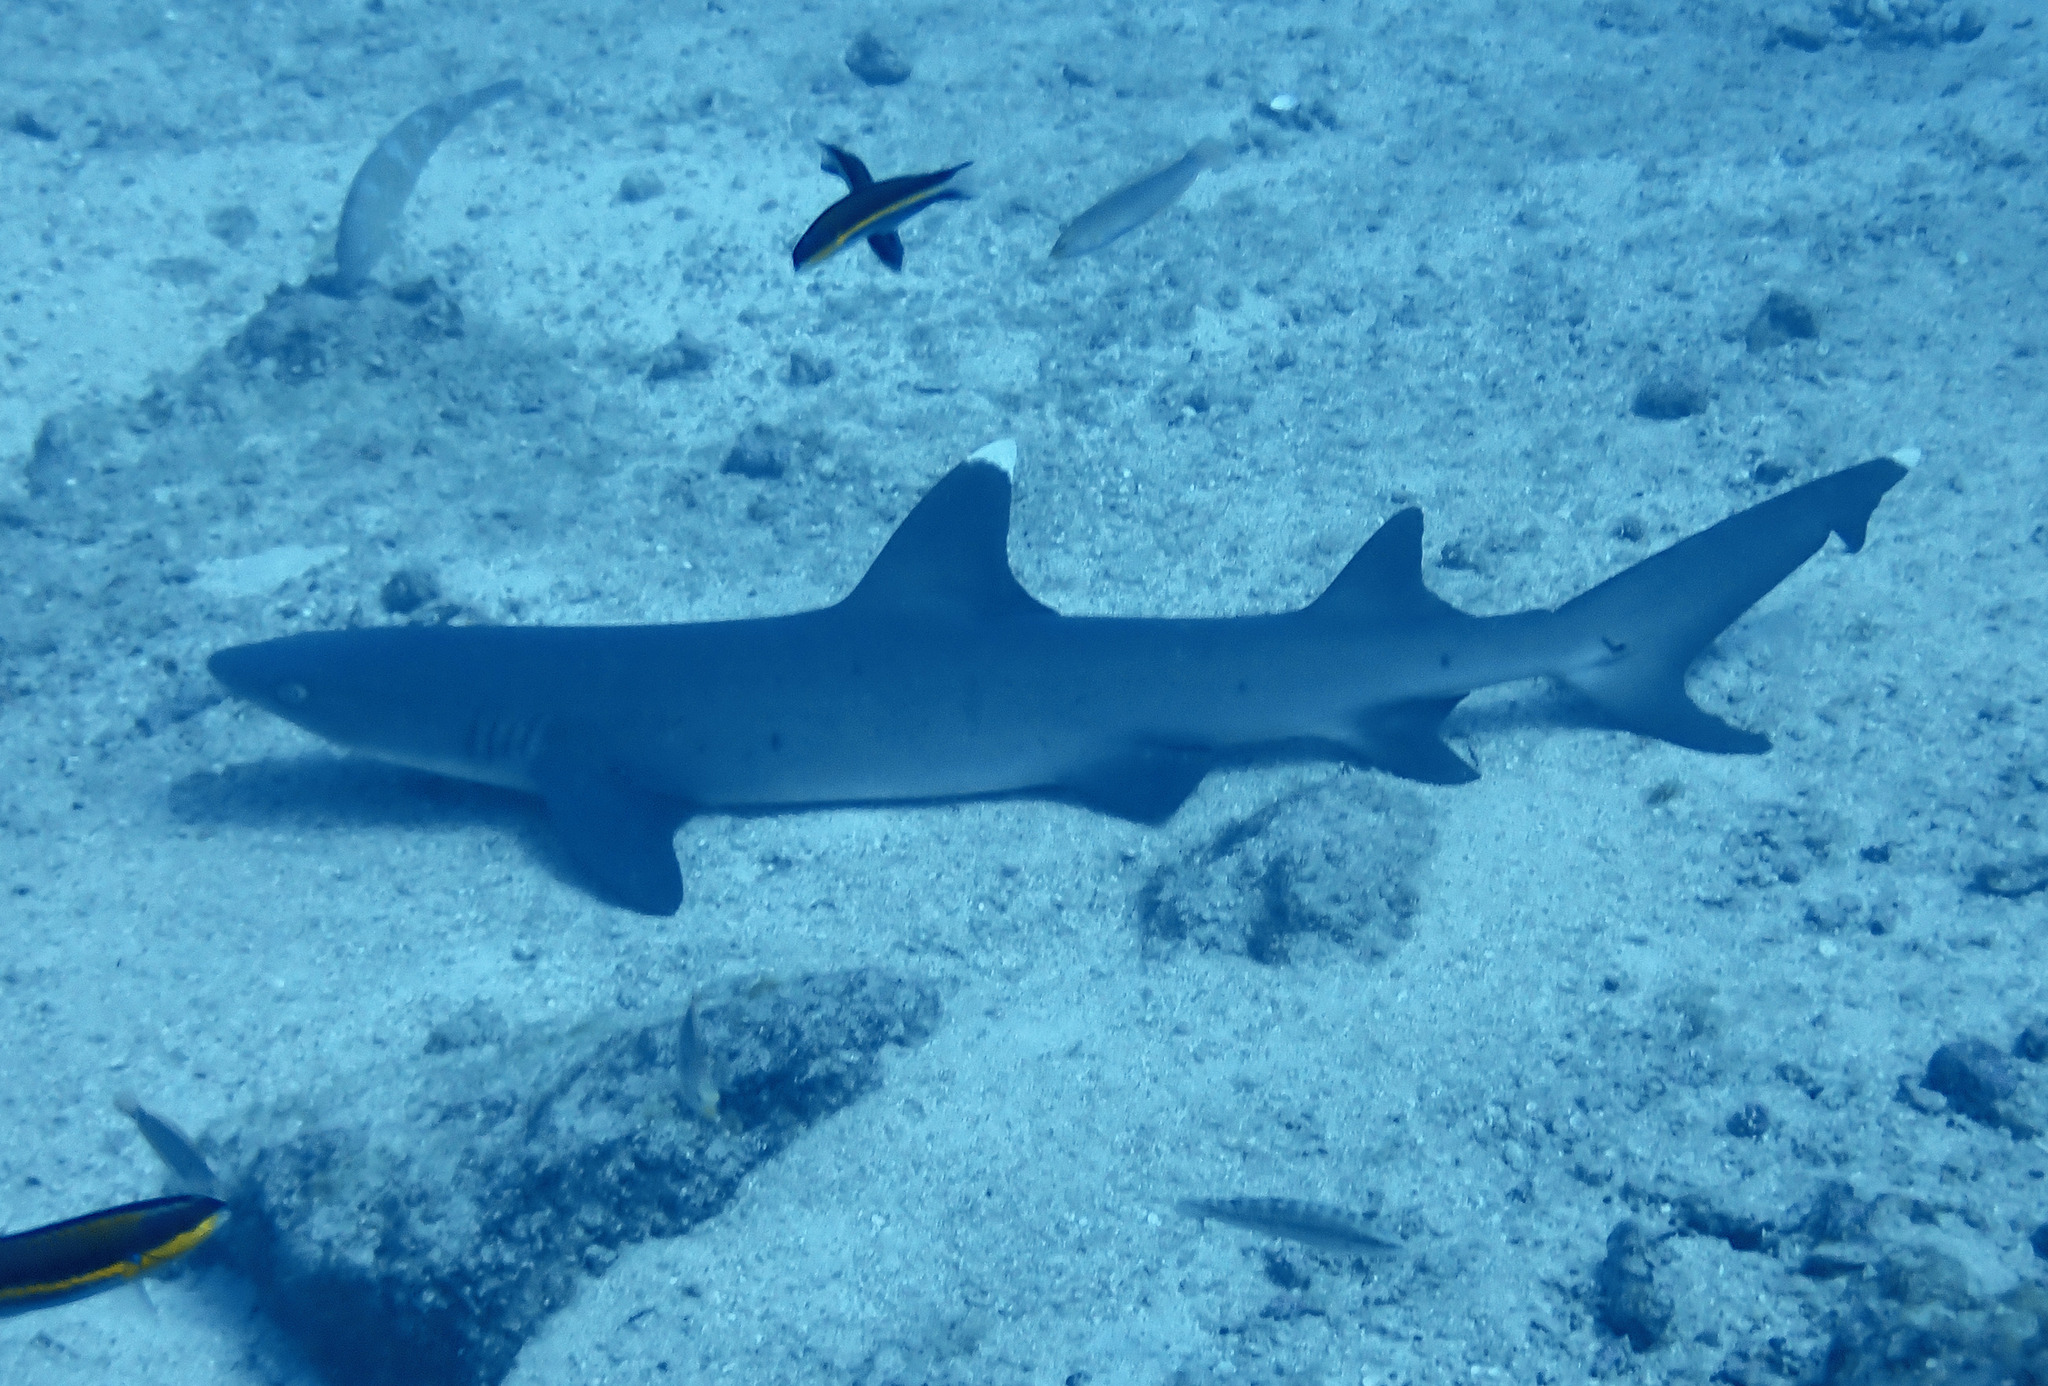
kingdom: Animalia
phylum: Chordata
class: Elasmobranchii
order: Carcharhiniformes
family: Carcharhinidae
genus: Triaenodon
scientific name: Triaenodon obesus
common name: Whitetip reef shark
